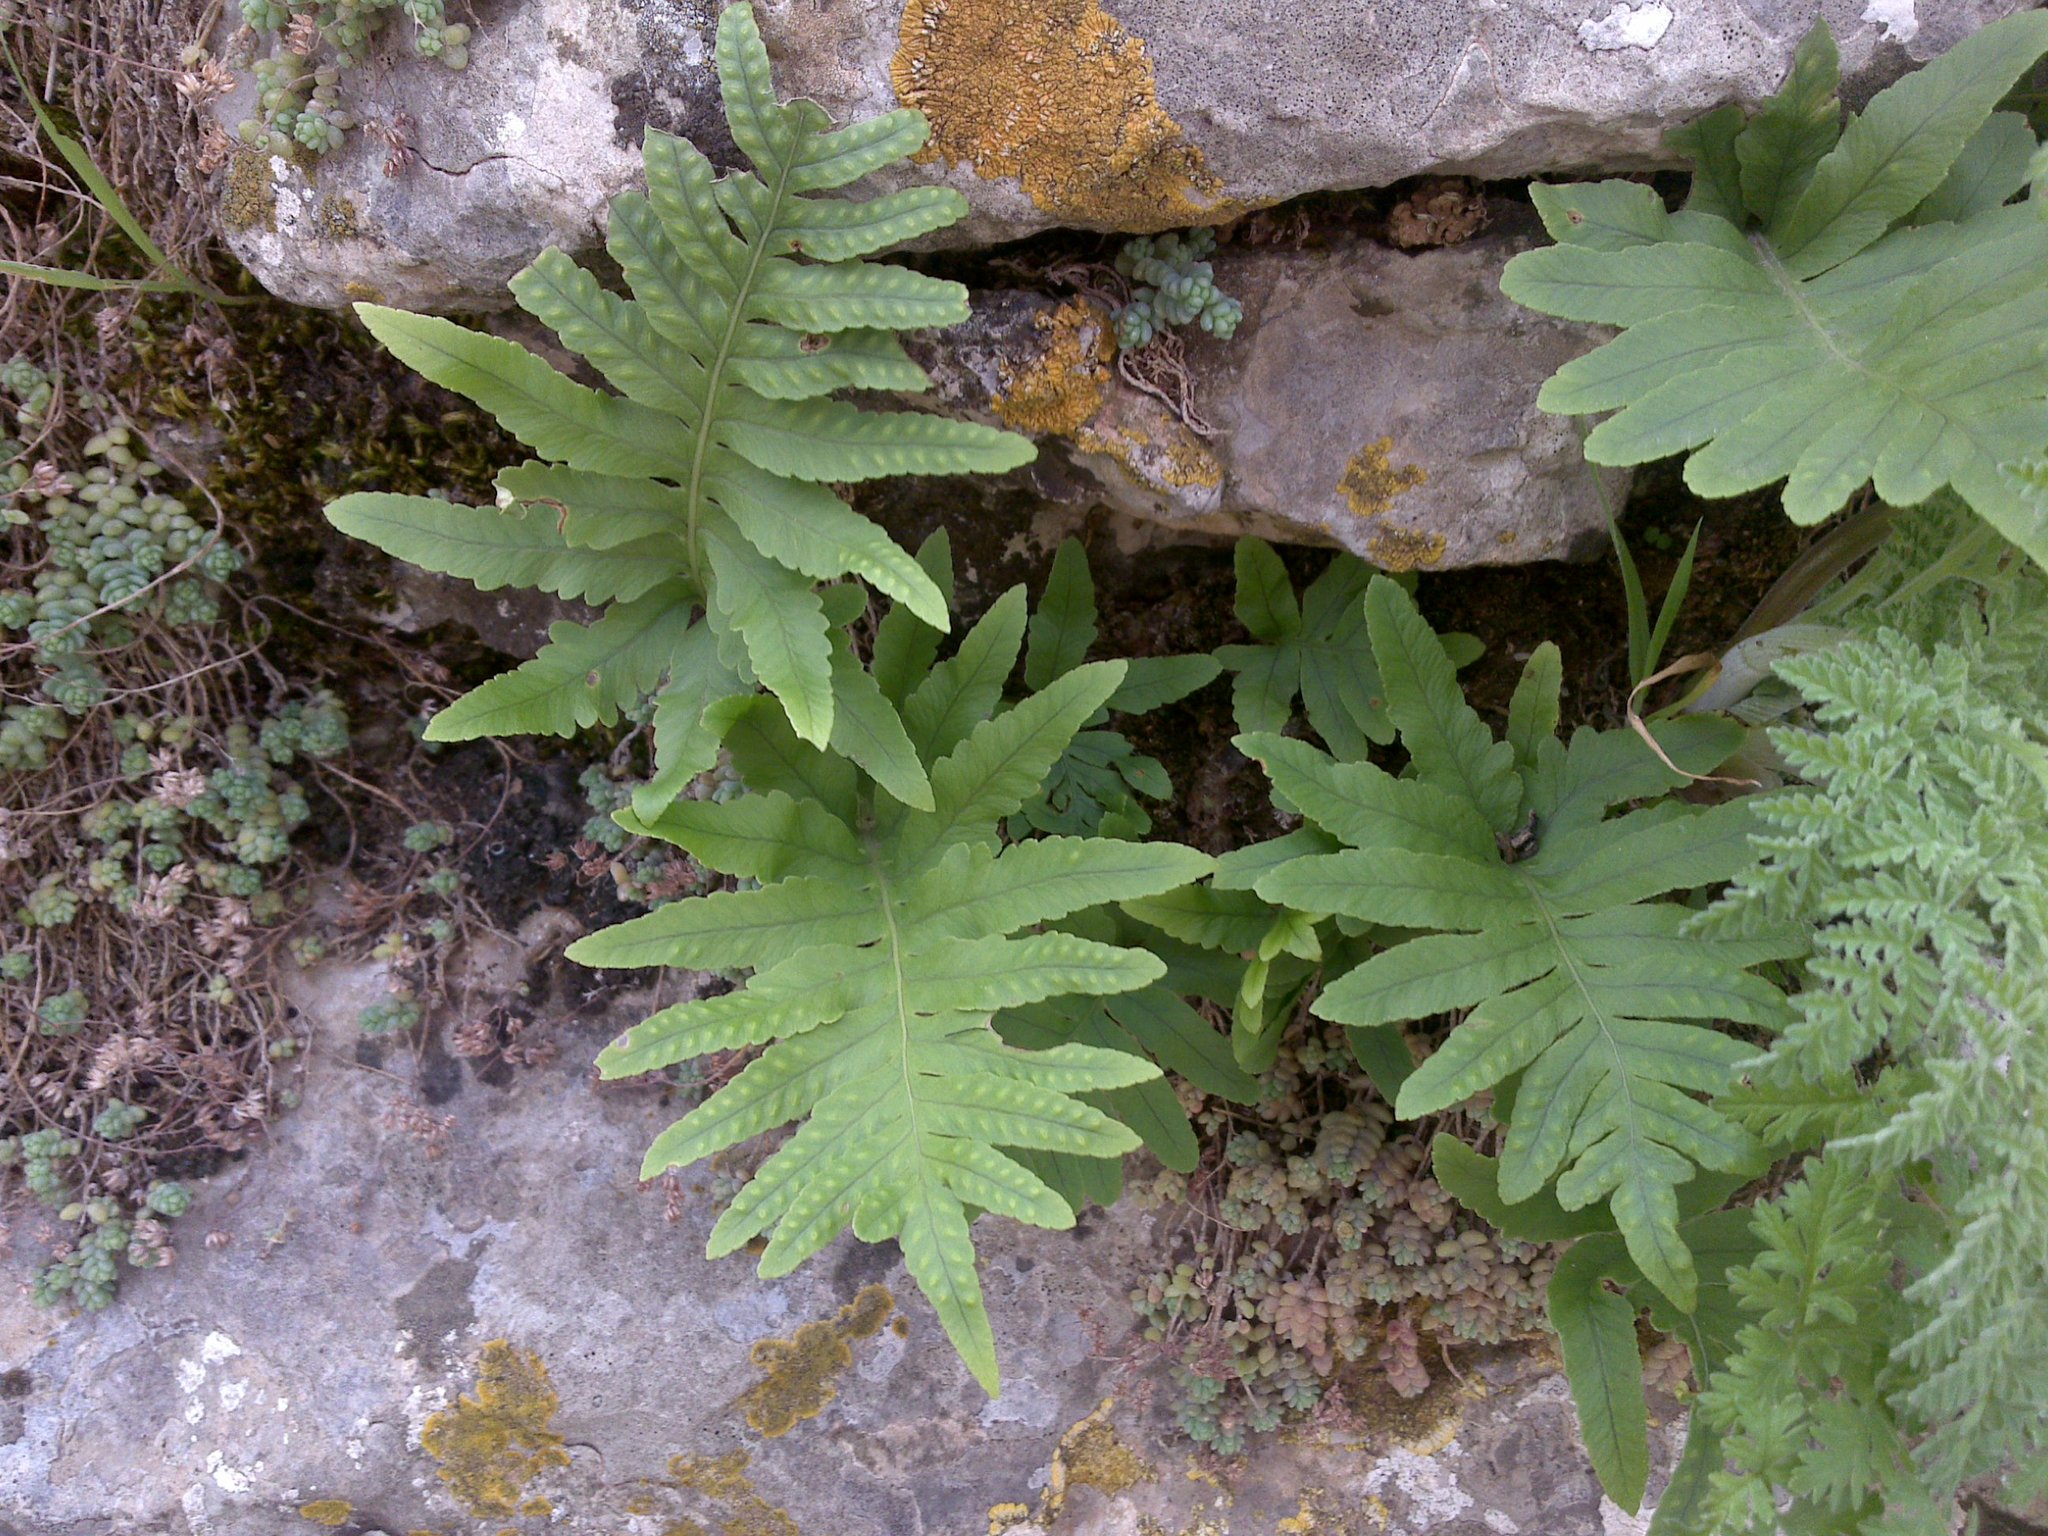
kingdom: Plantae
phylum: Tracheophyta
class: Polypodiopsida
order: Polypodiales
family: Polypodiaceae
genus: Polypodium
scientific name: Polypodium cambricum
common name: Southern polypody
